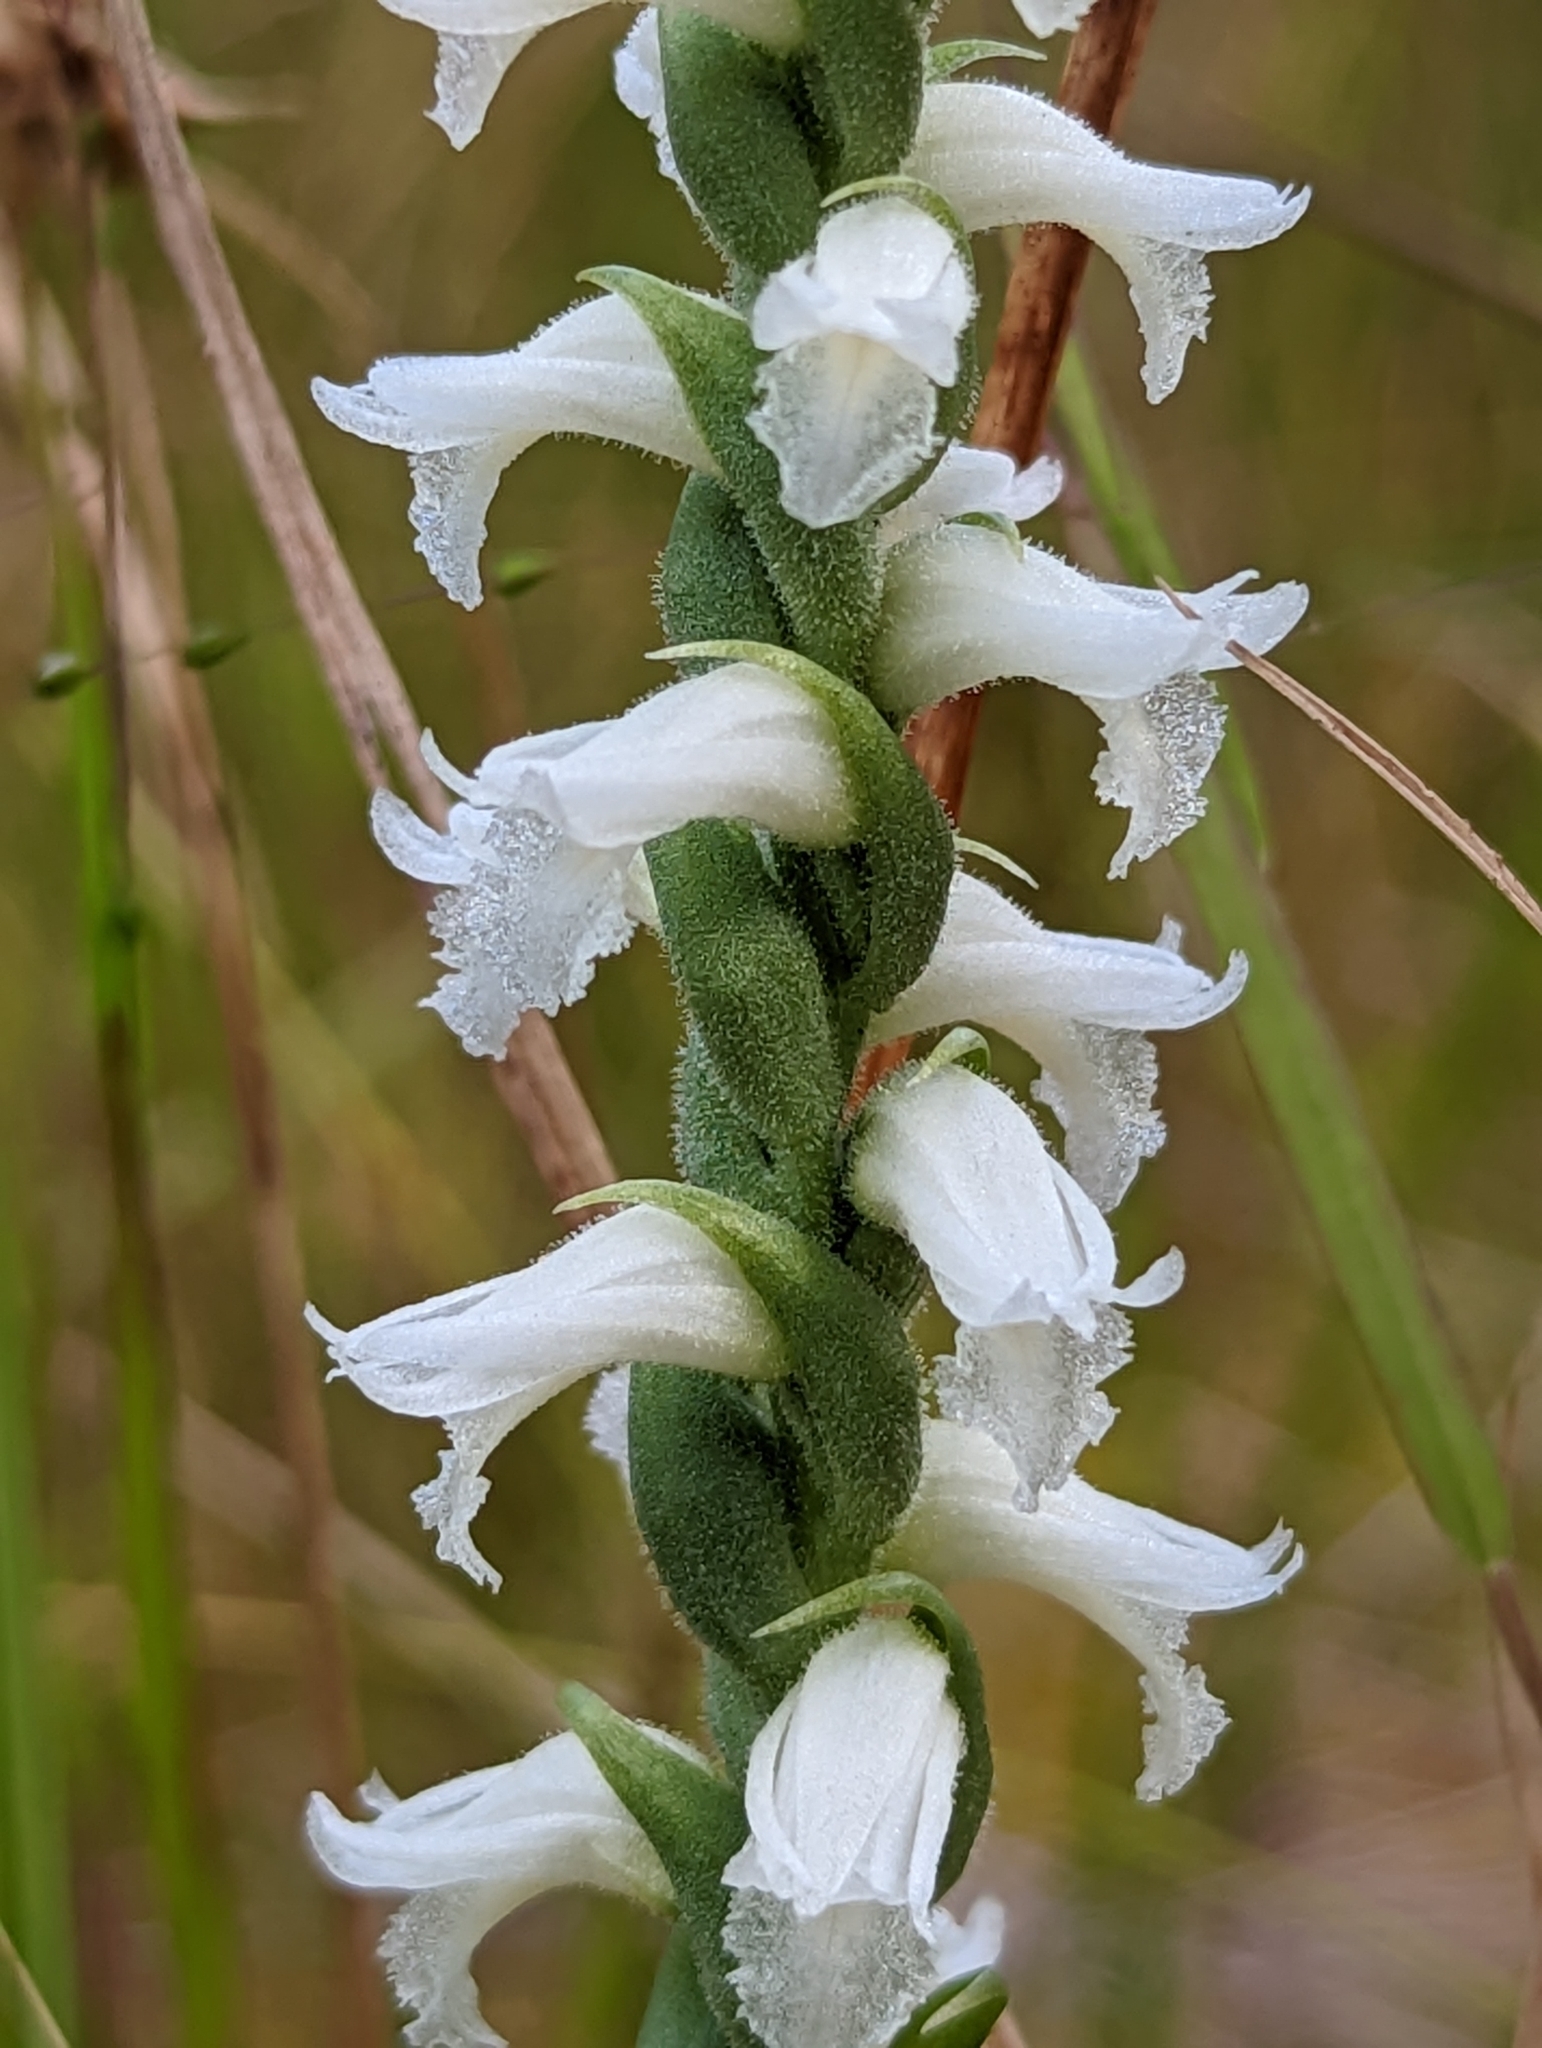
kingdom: Plantae
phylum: Tracheophyta
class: Liliopsida
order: Asparagales
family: Orchidaceae
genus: Spiranthes
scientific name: Spiranthes cernua
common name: Dropping ladies'-tresses
